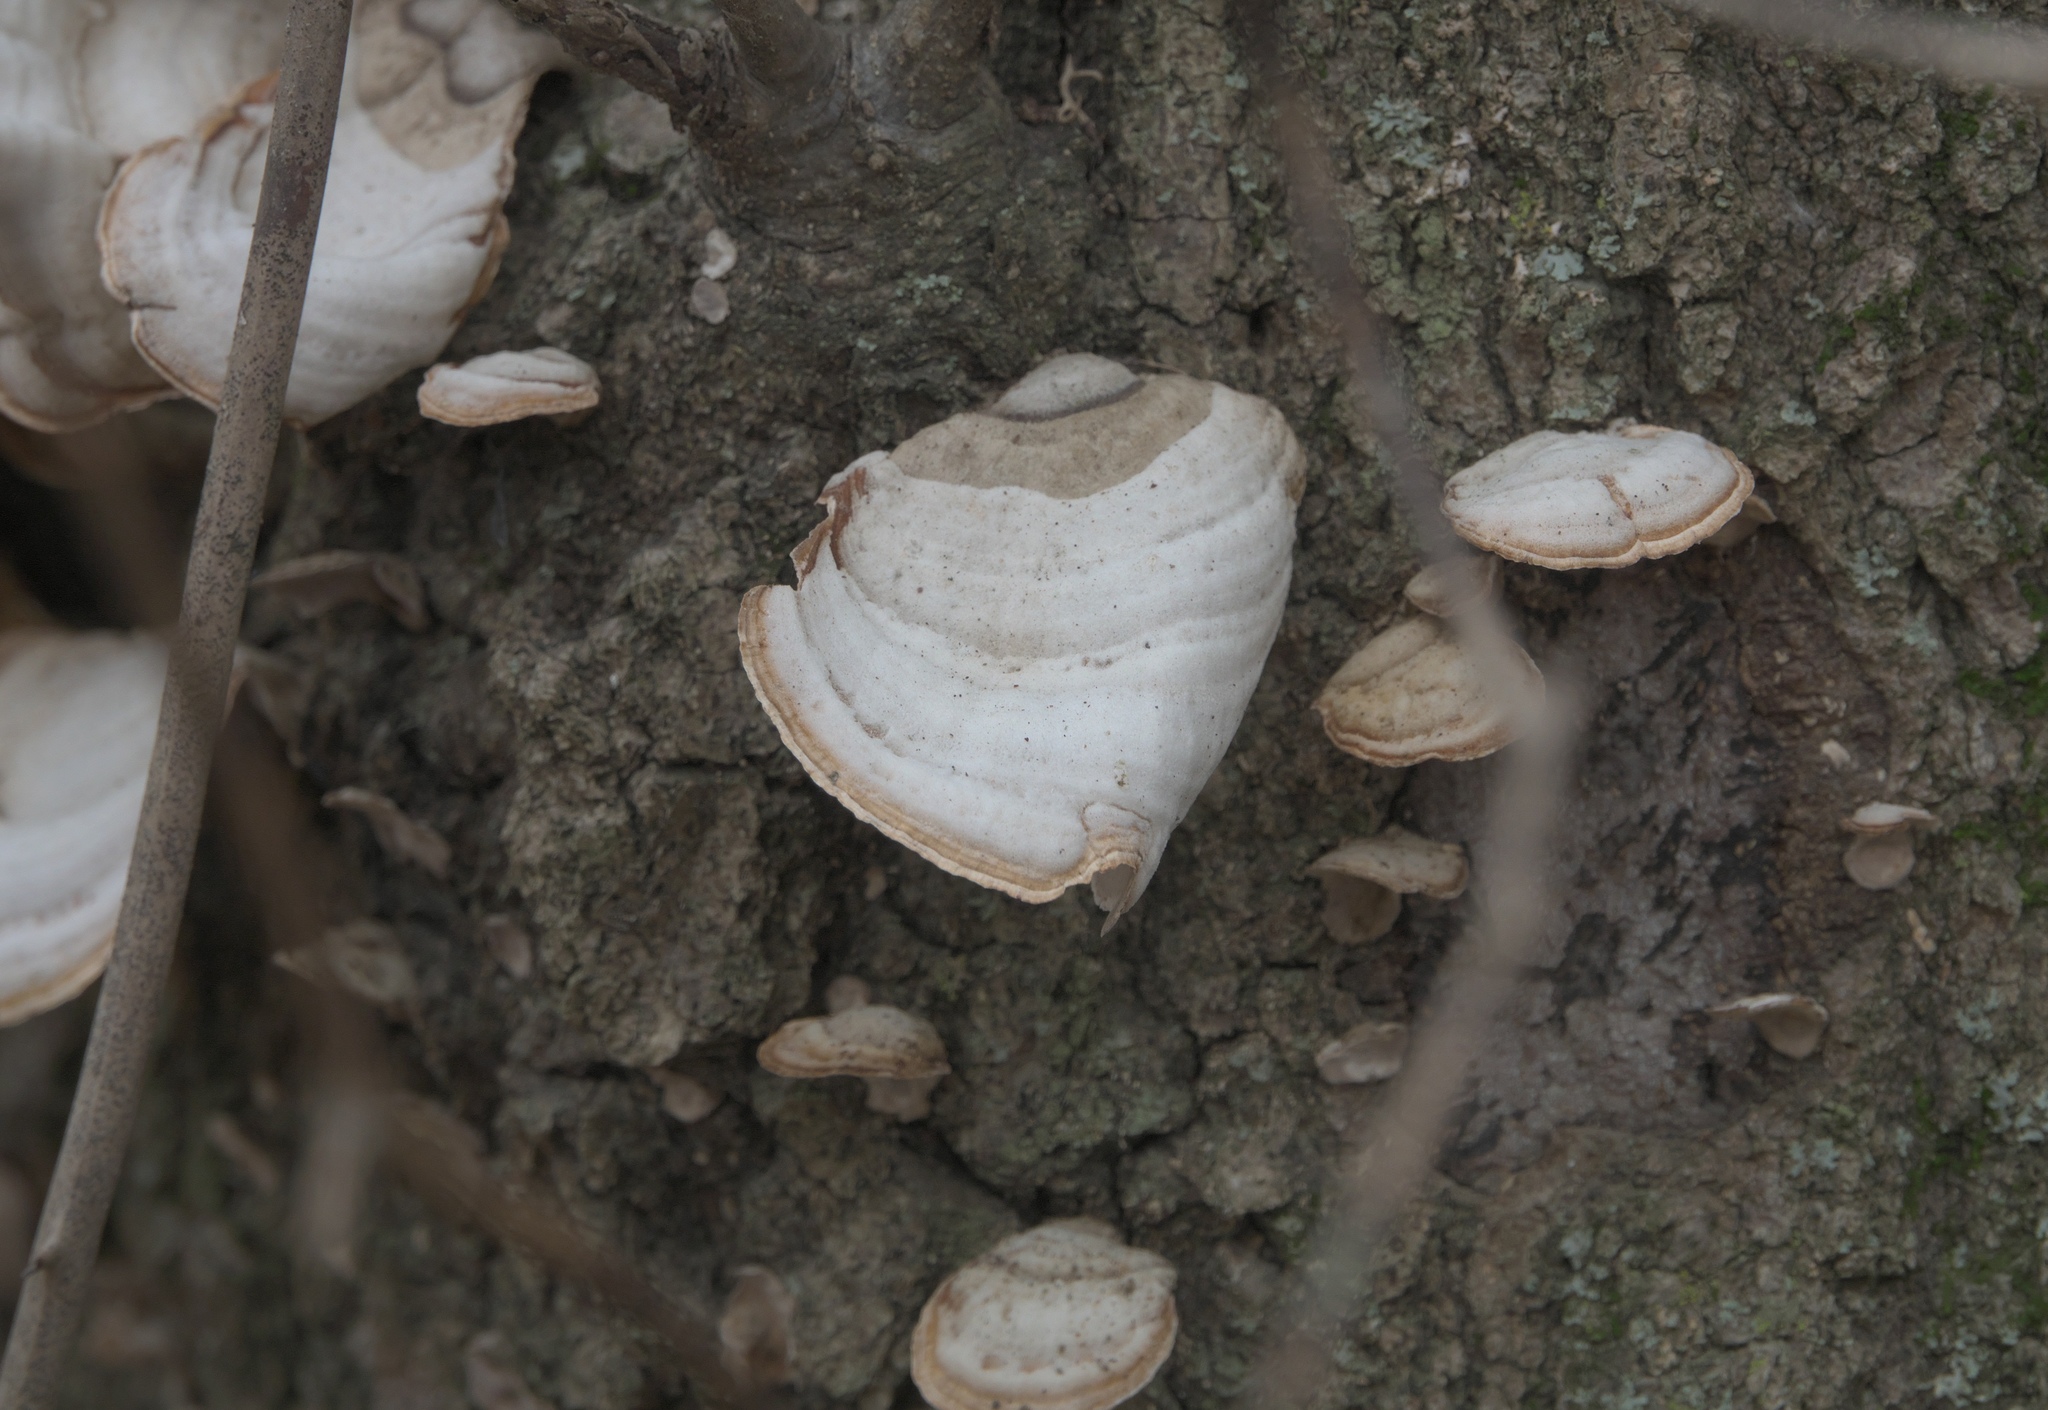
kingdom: Fungi
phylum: Basidiomycota
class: Agaricomycetes
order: Russulales
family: Stereaceae
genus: Stereum
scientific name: Stereum ostrea
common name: False turkeytail
